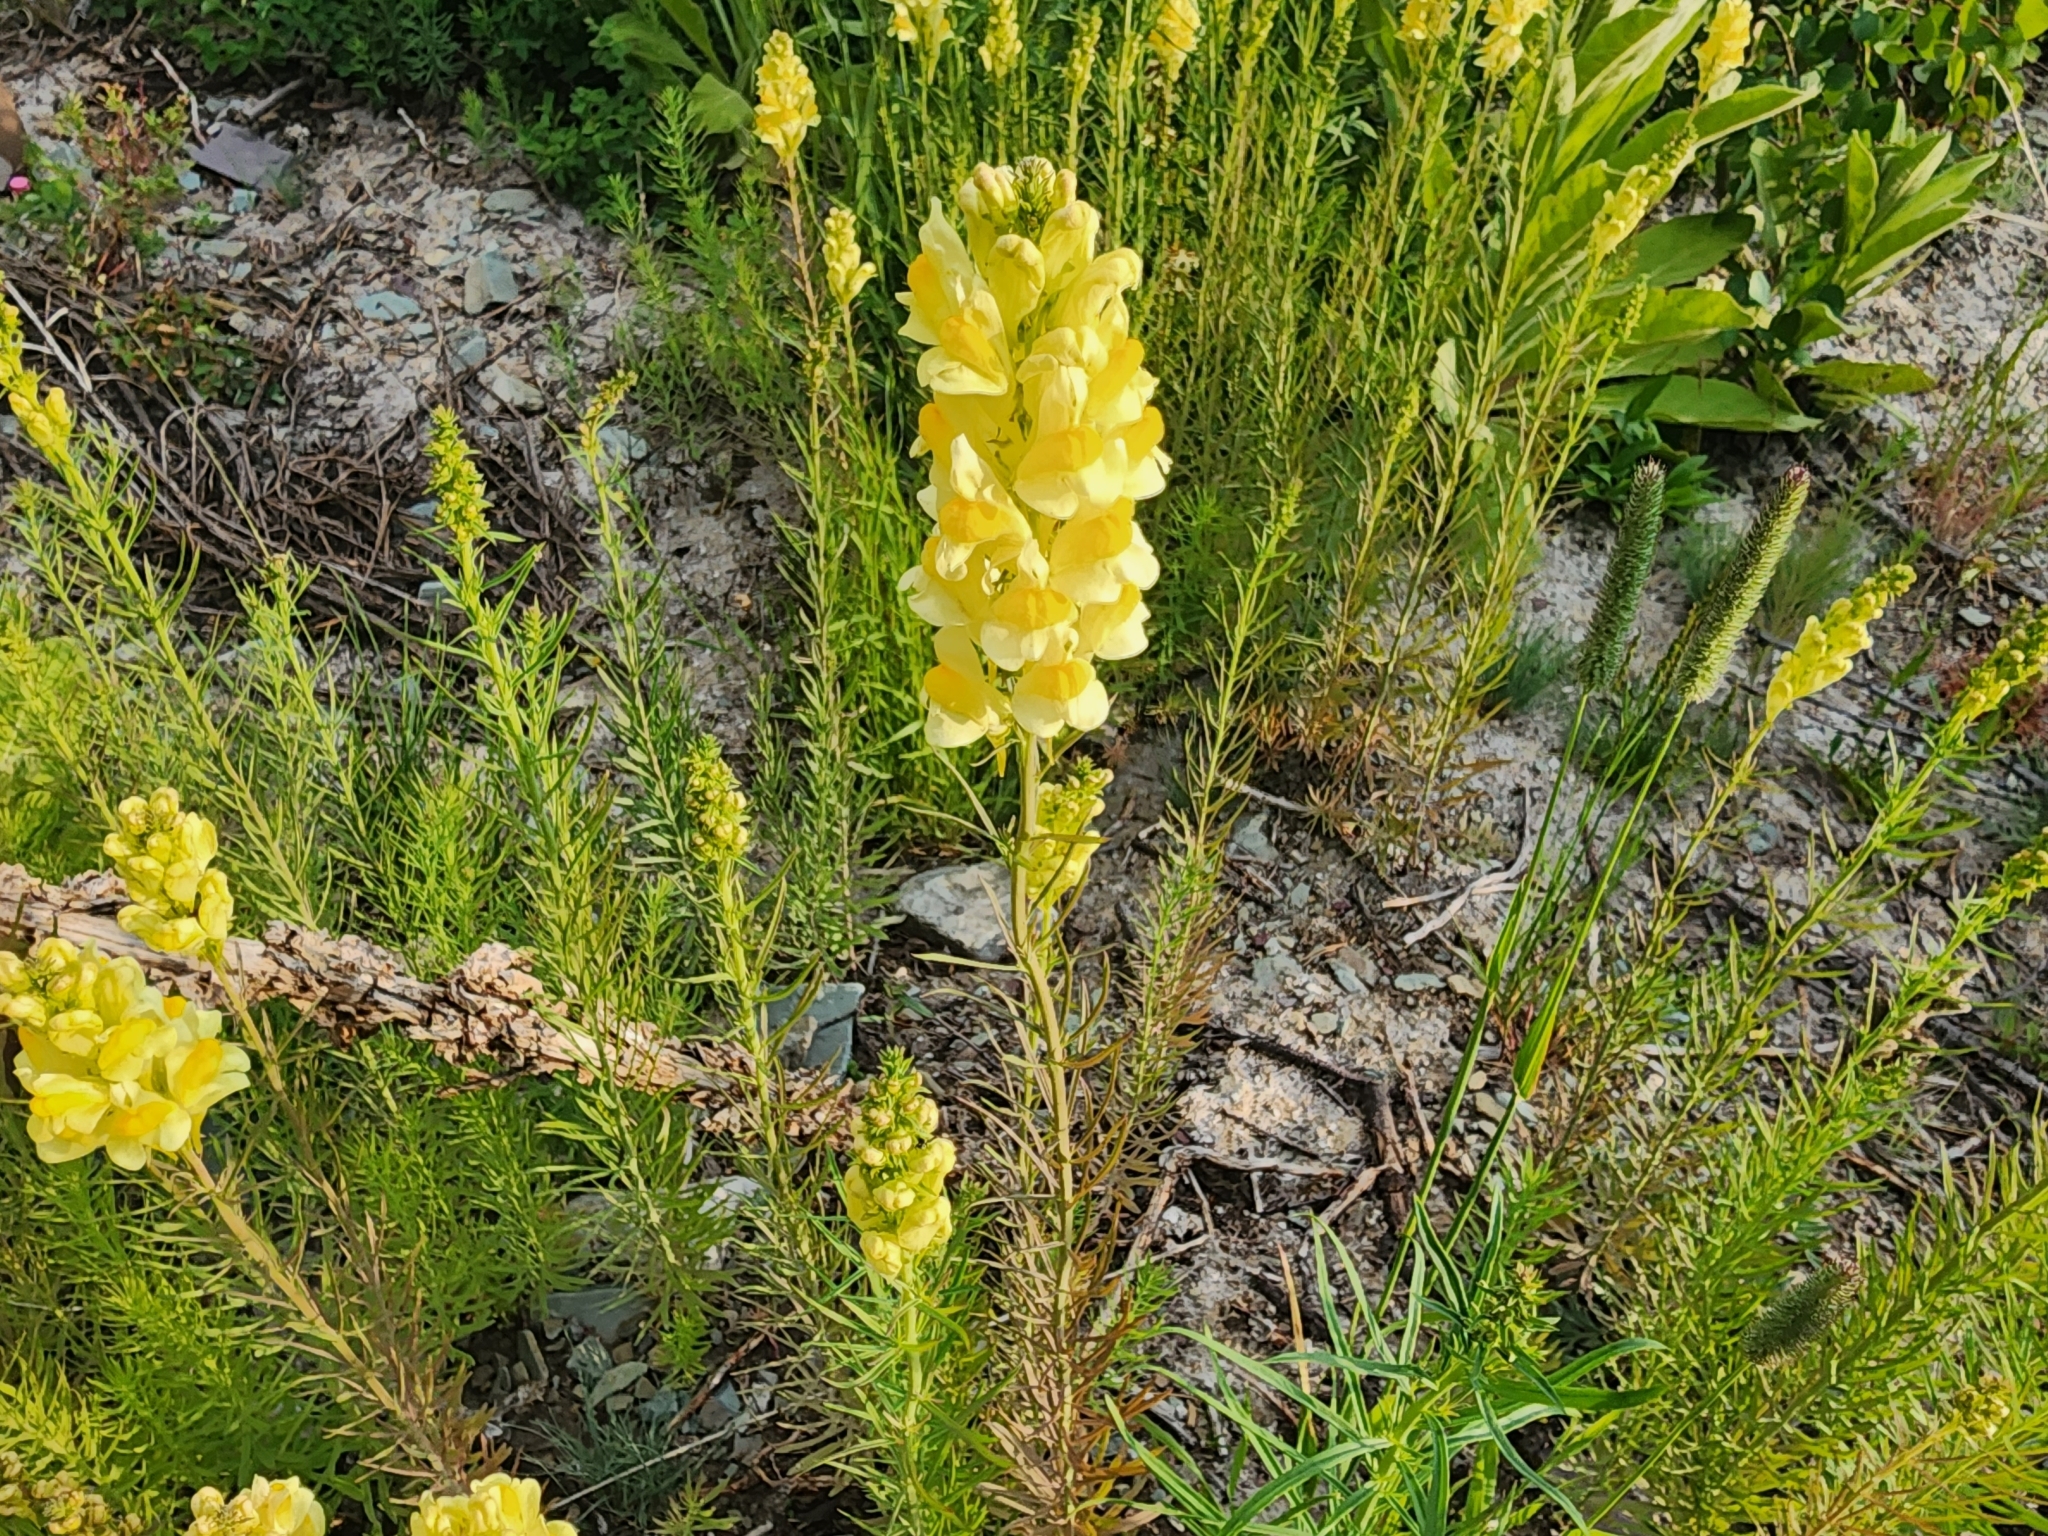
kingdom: Plantae
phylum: Tracheophyta
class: Magnoliopsida
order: Lamiales
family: Plantaginaceae
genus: Linaria
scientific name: Linaria vulgaris
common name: Butter and eggs
